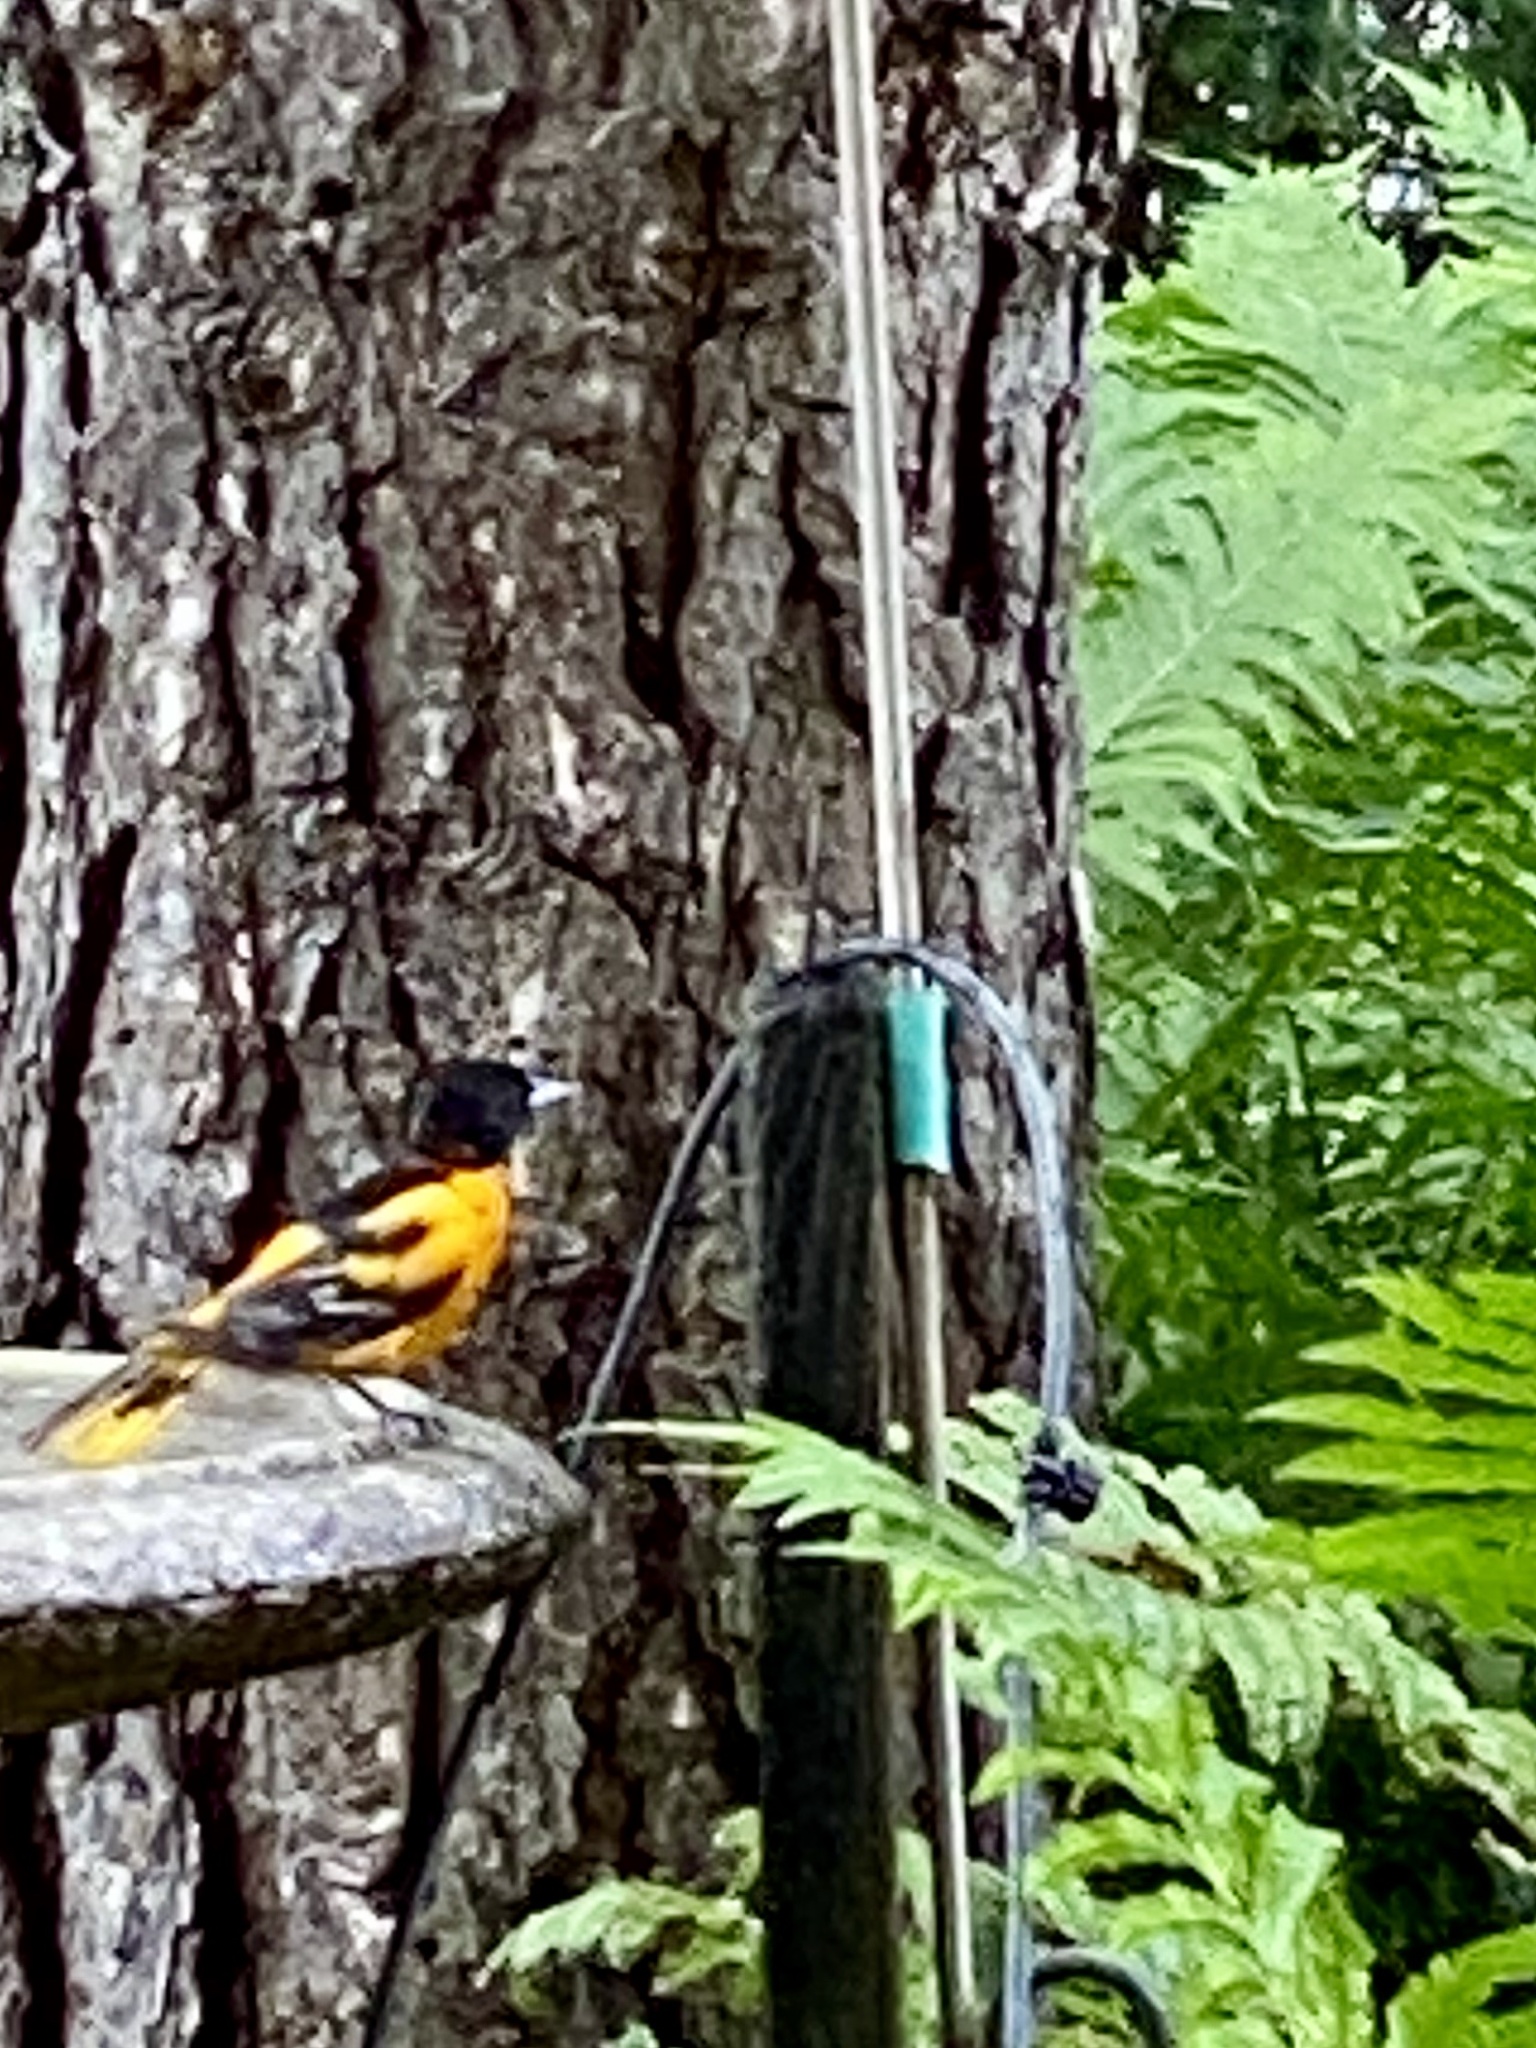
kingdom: Animalia
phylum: Chordata
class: Aves
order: Passeriformes
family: Icteridae
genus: Icterus
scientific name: Icterus galbula
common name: Baltimore oriole
